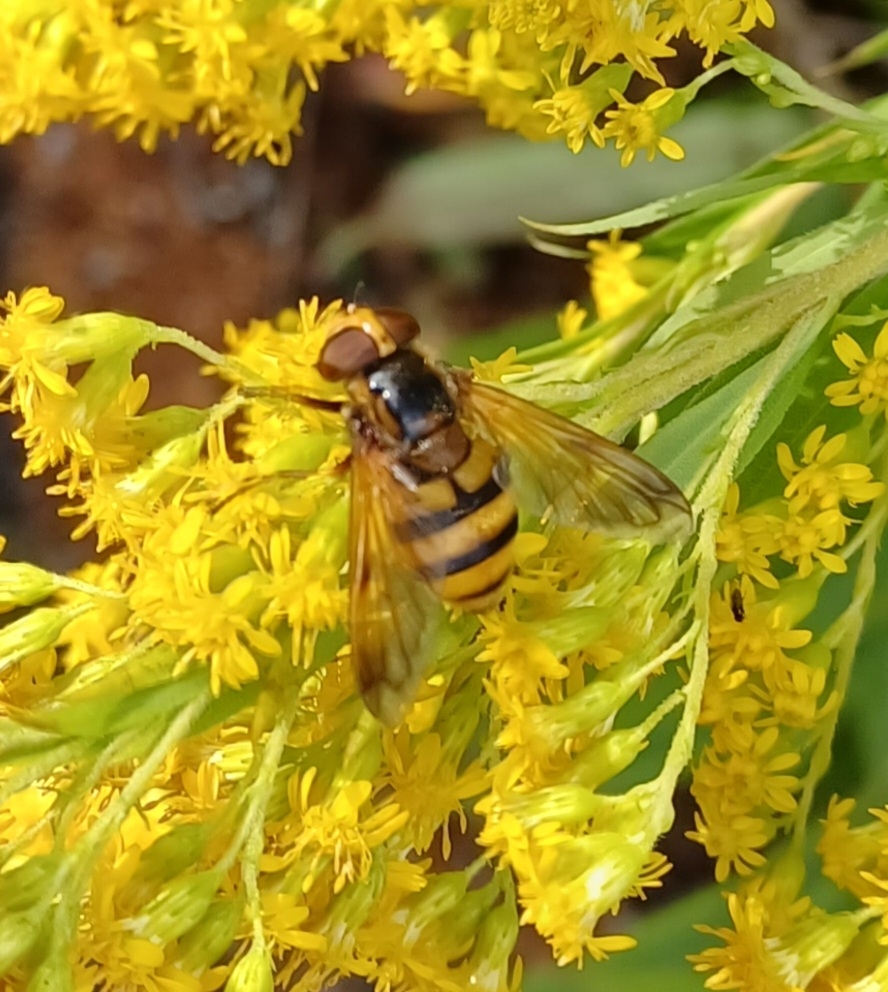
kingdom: Animalia
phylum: Arthropoda
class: Insecta
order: Diptera
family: Syrphidae
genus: Volucella
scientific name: Volucella inanis
